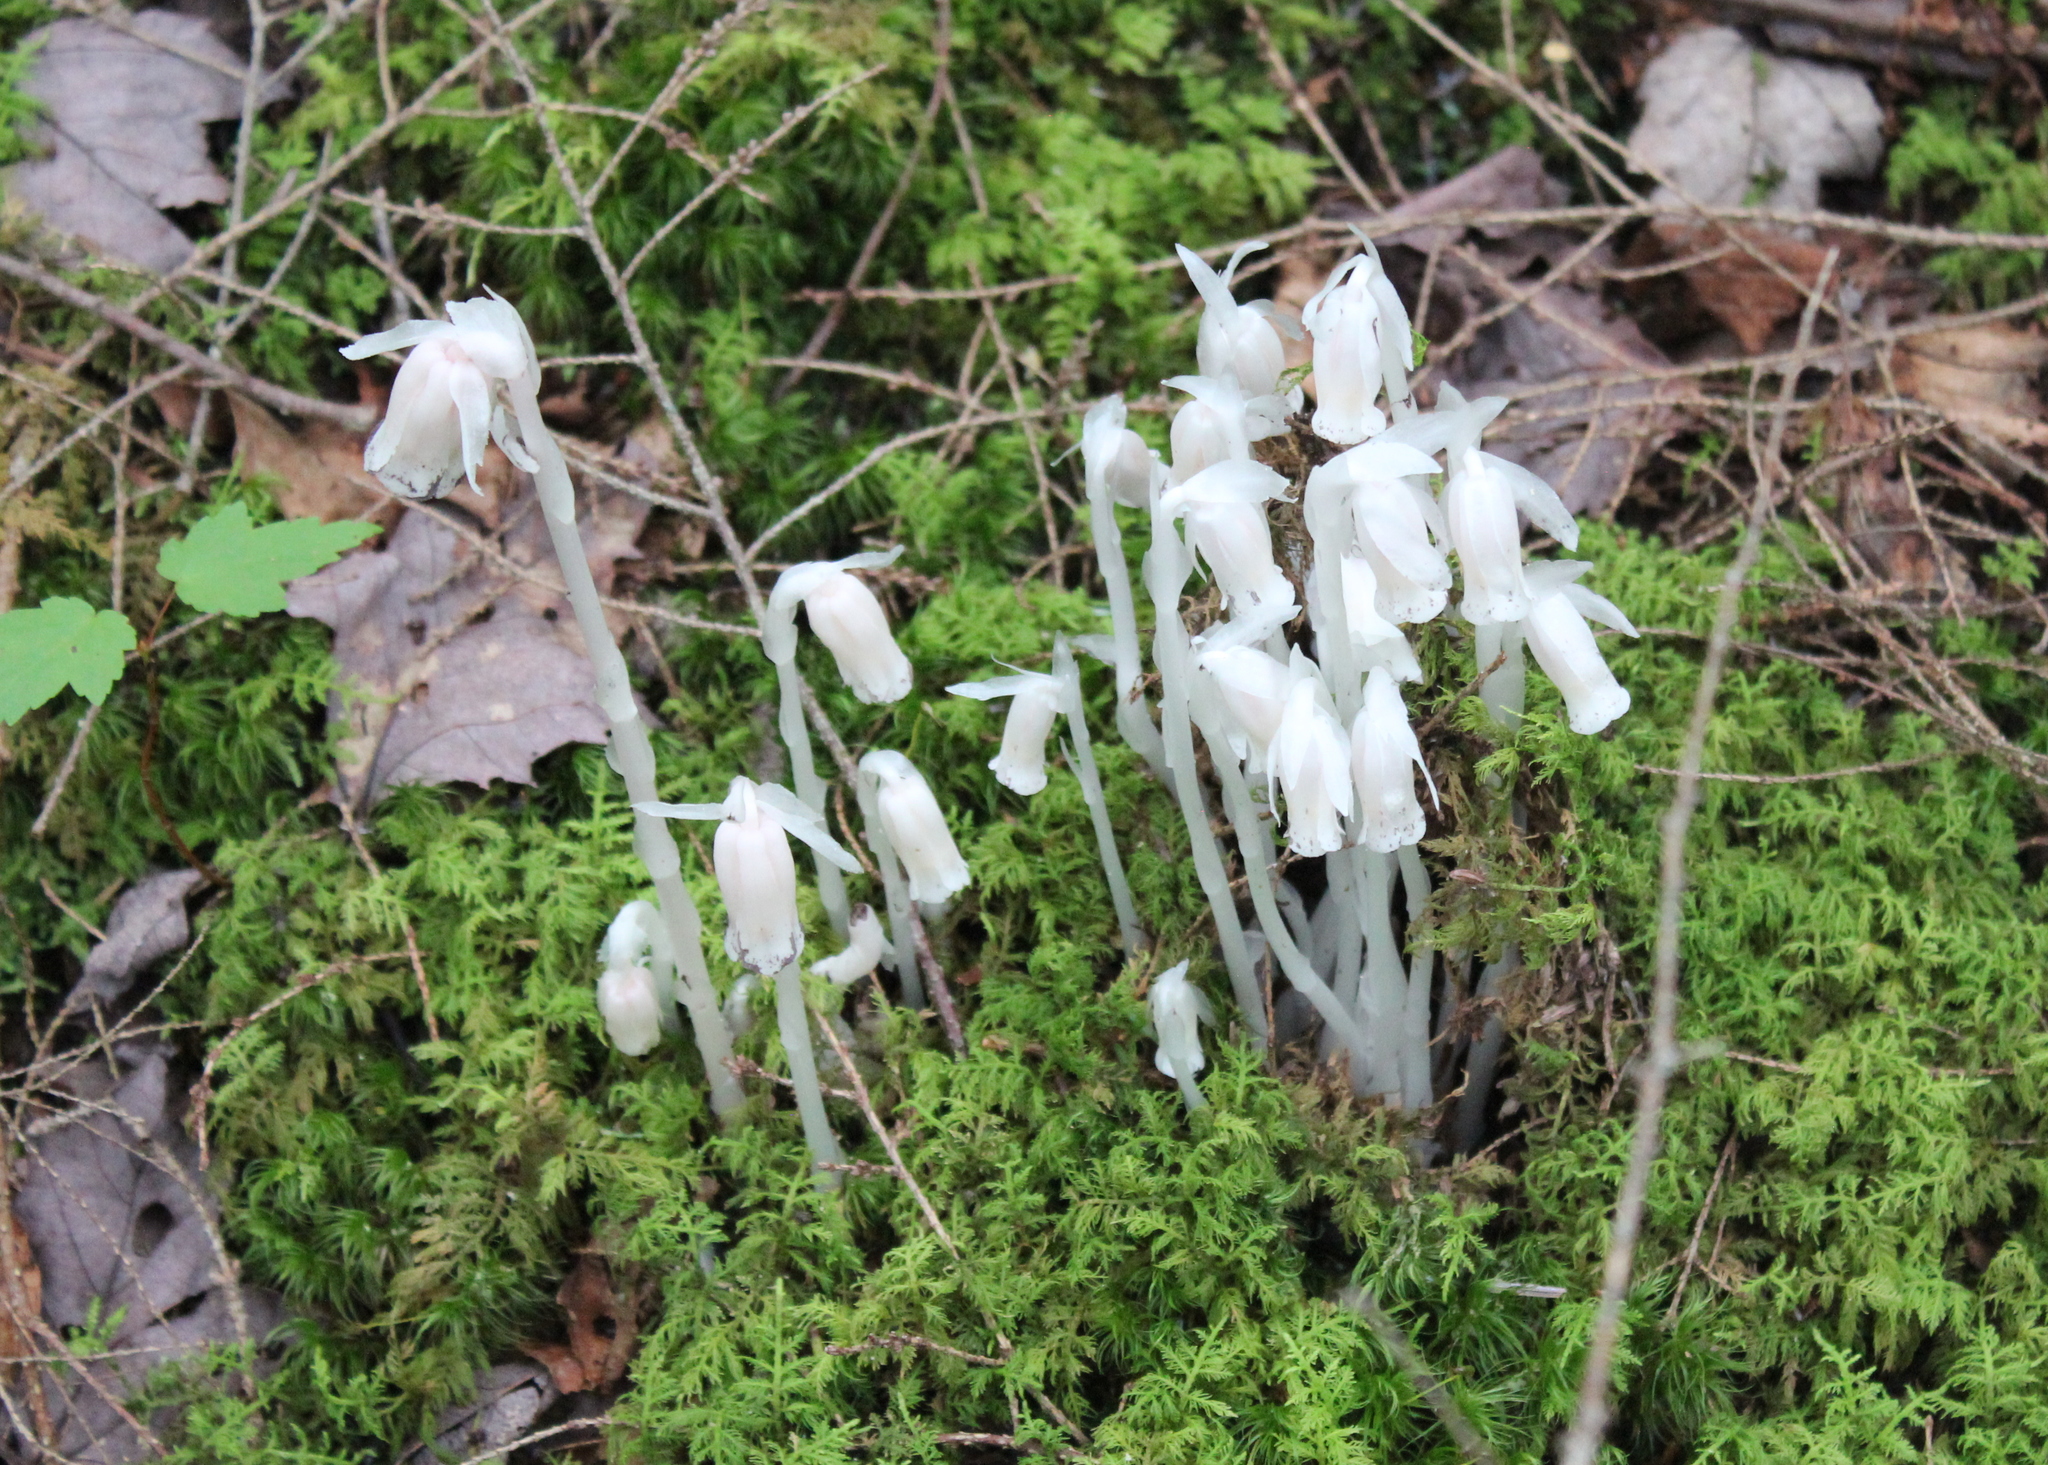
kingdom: Plantae
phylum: Tracheophyta
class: Magnoliopsida
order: Ericales
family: Ericaceae
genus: Monotropa
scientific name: Monotropa uniflora
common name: Convulsion root
